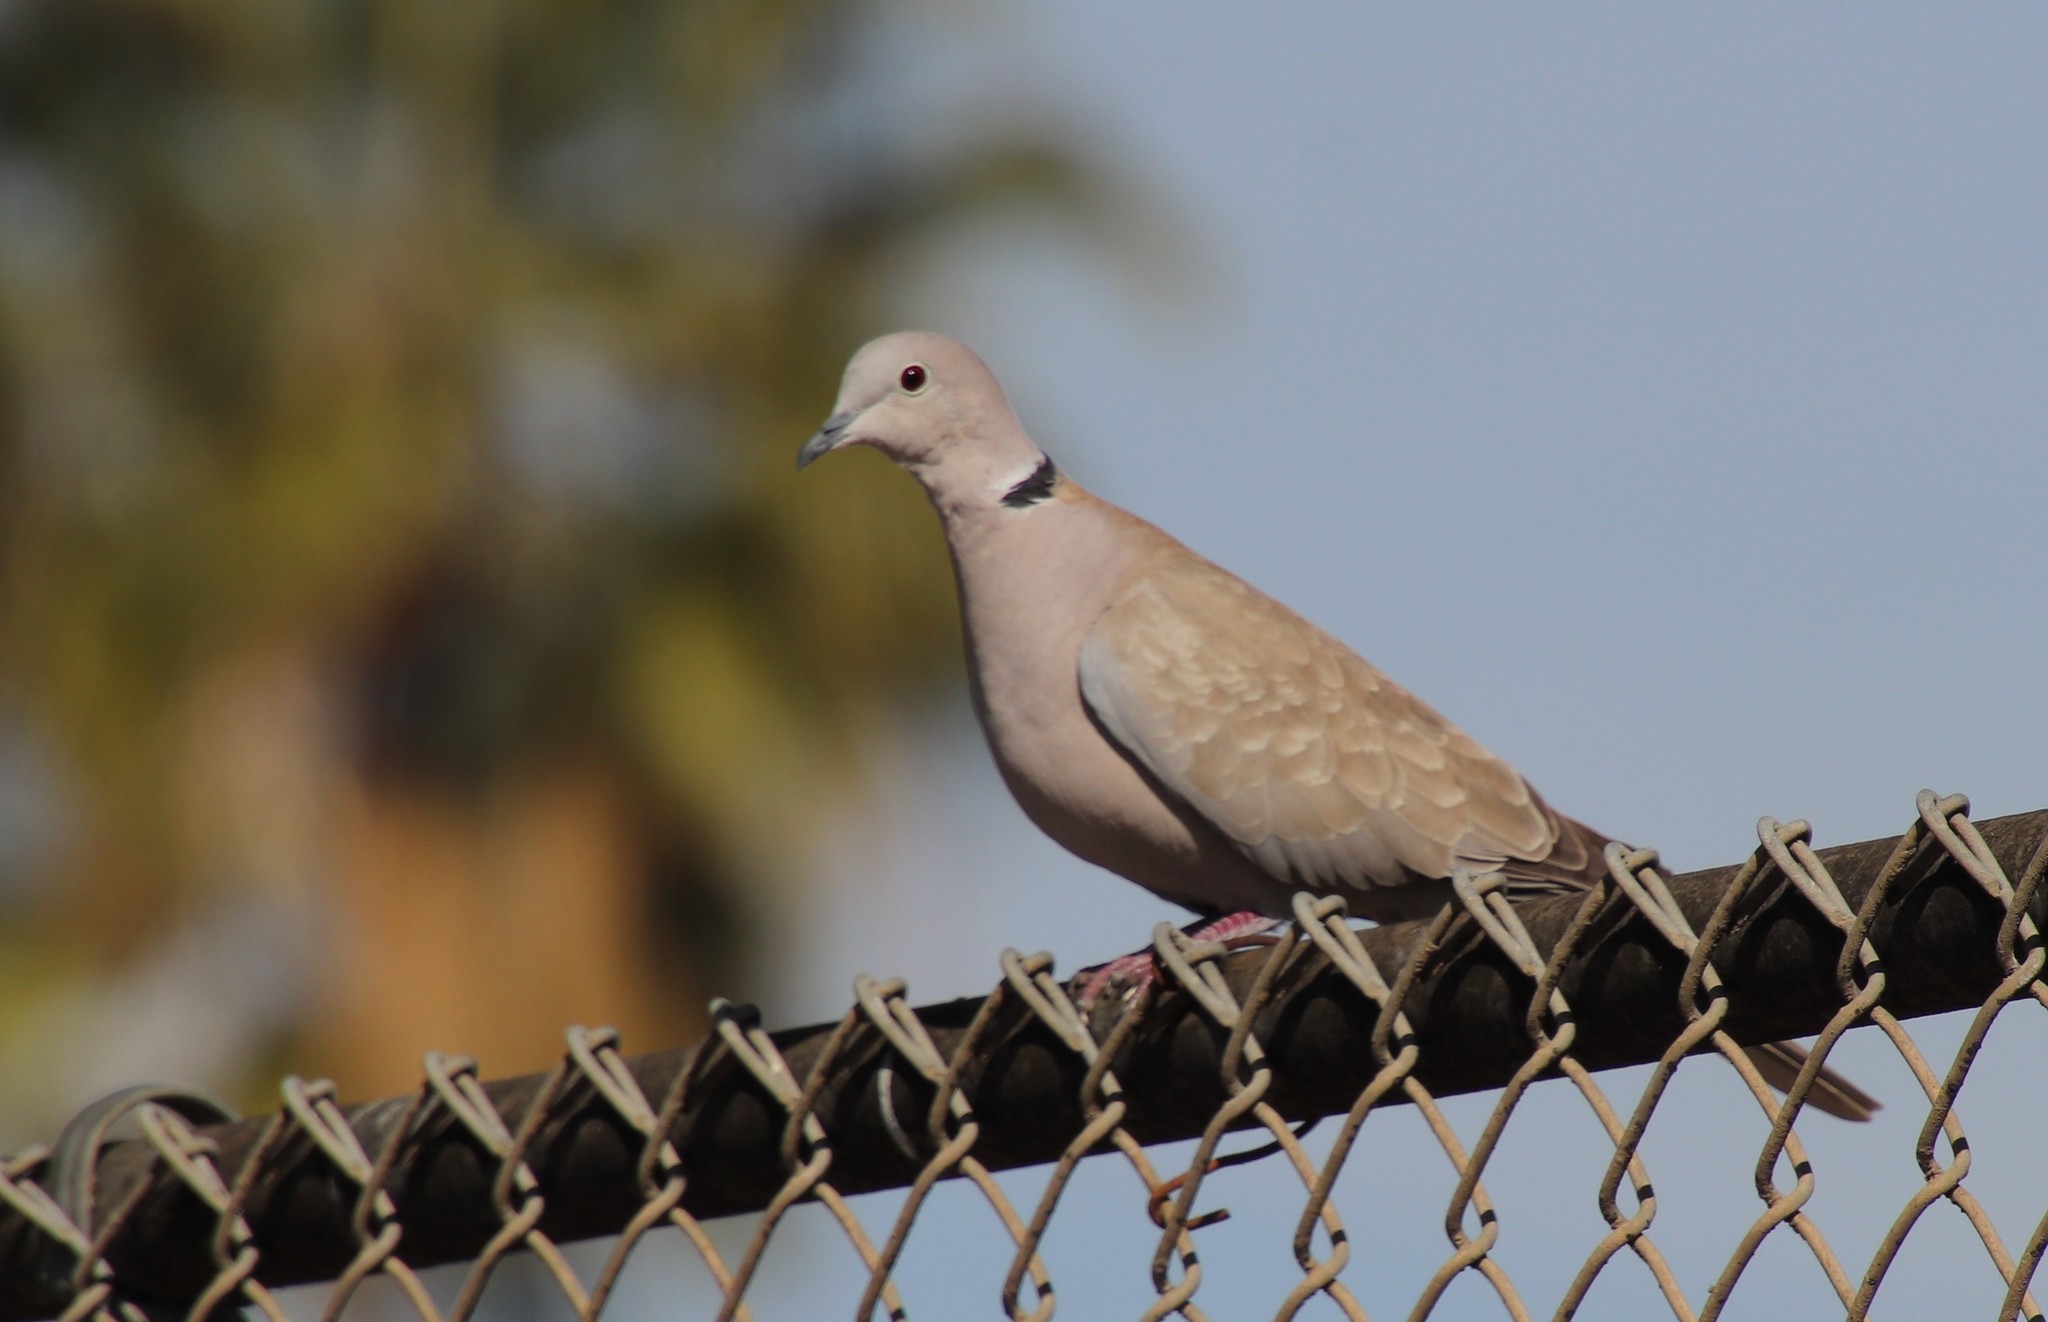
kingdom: Animalia
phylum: Chordata
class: Aves
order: Columbiformes
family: Columbidae
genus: Streptopelia
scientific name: Streptopelia decaocto
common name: Eurasian collared dove
